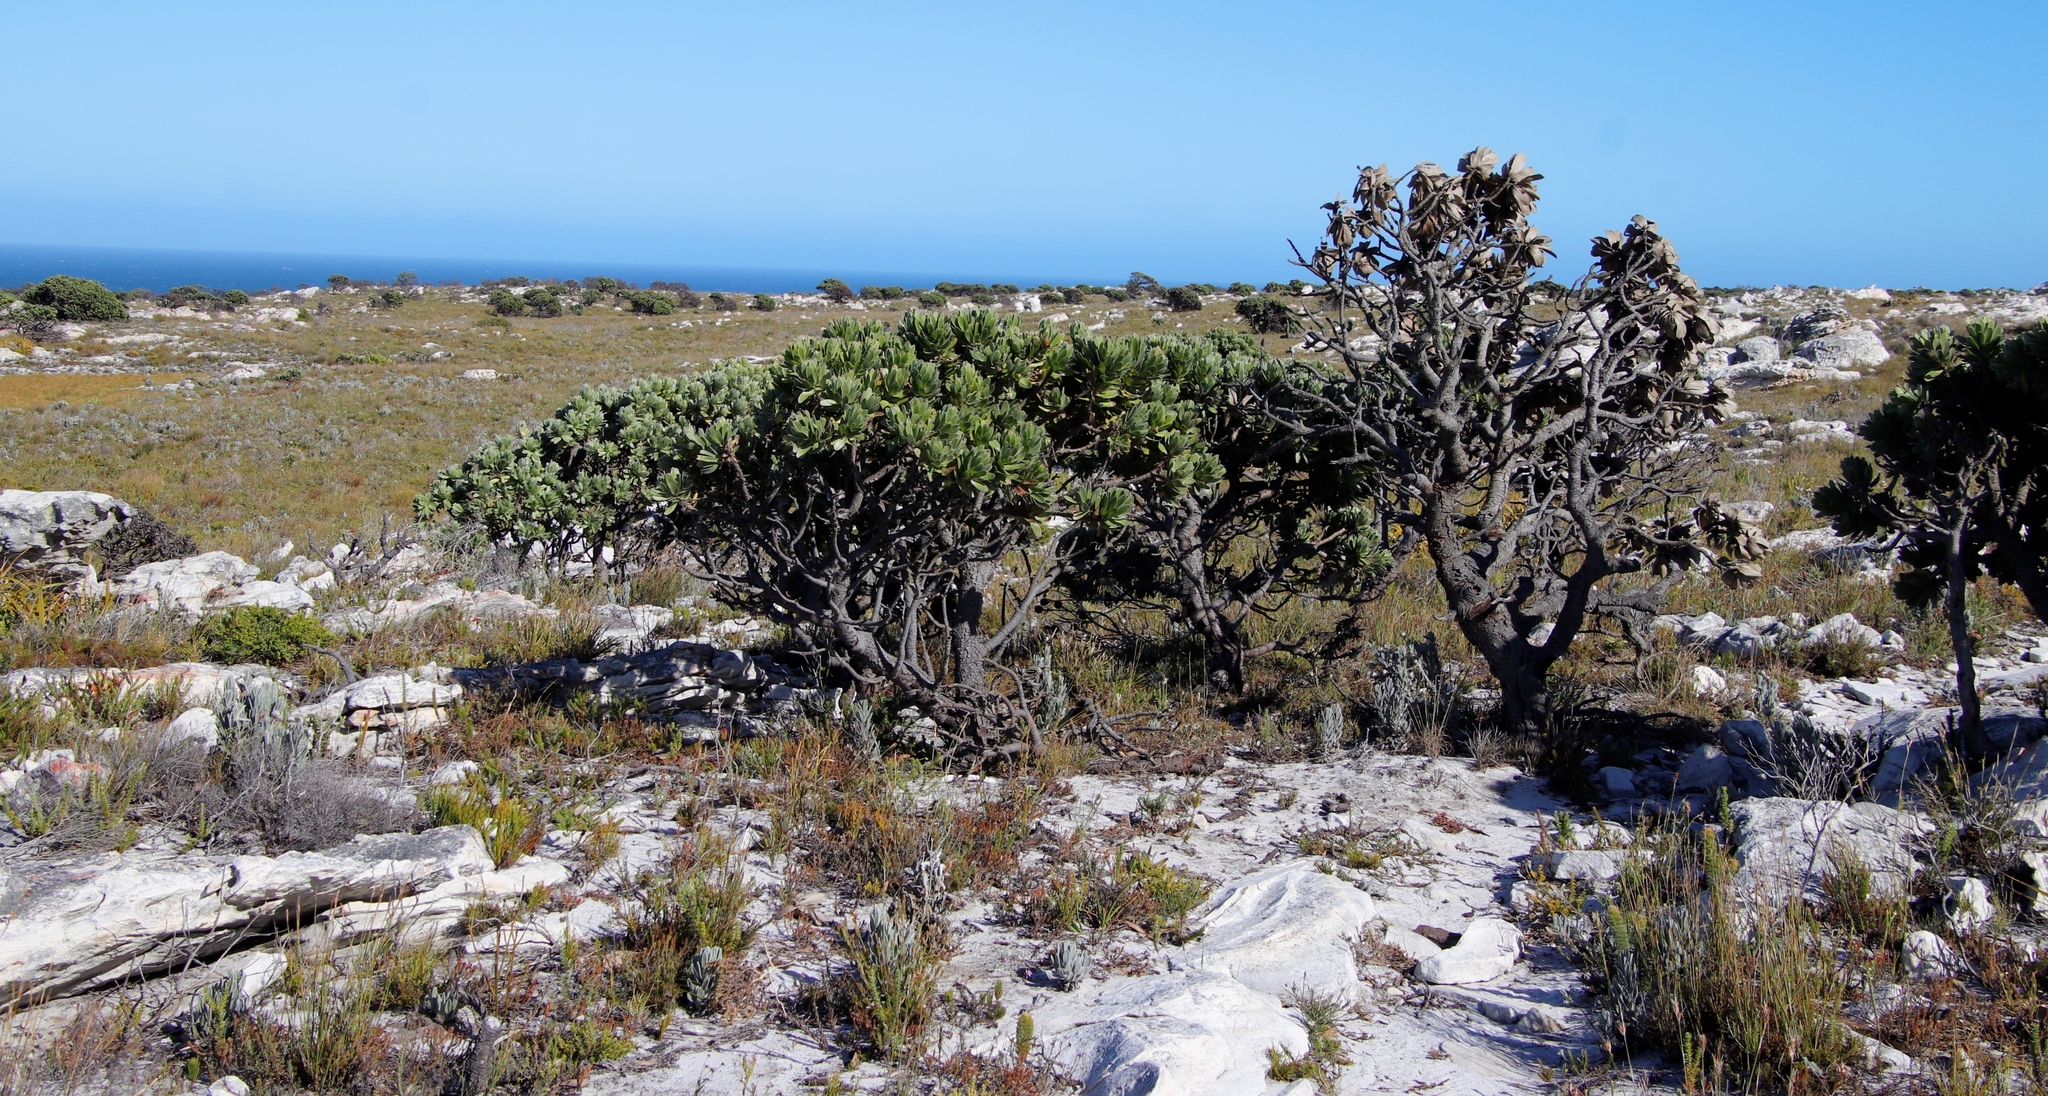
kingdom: Plantae
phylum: Tracheophyta
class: Magnoliopsida
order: Proteales
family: Proteaceae
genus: Mimetes
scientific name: Mimetes fimbriifolius
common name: Fringed bottlebrush
